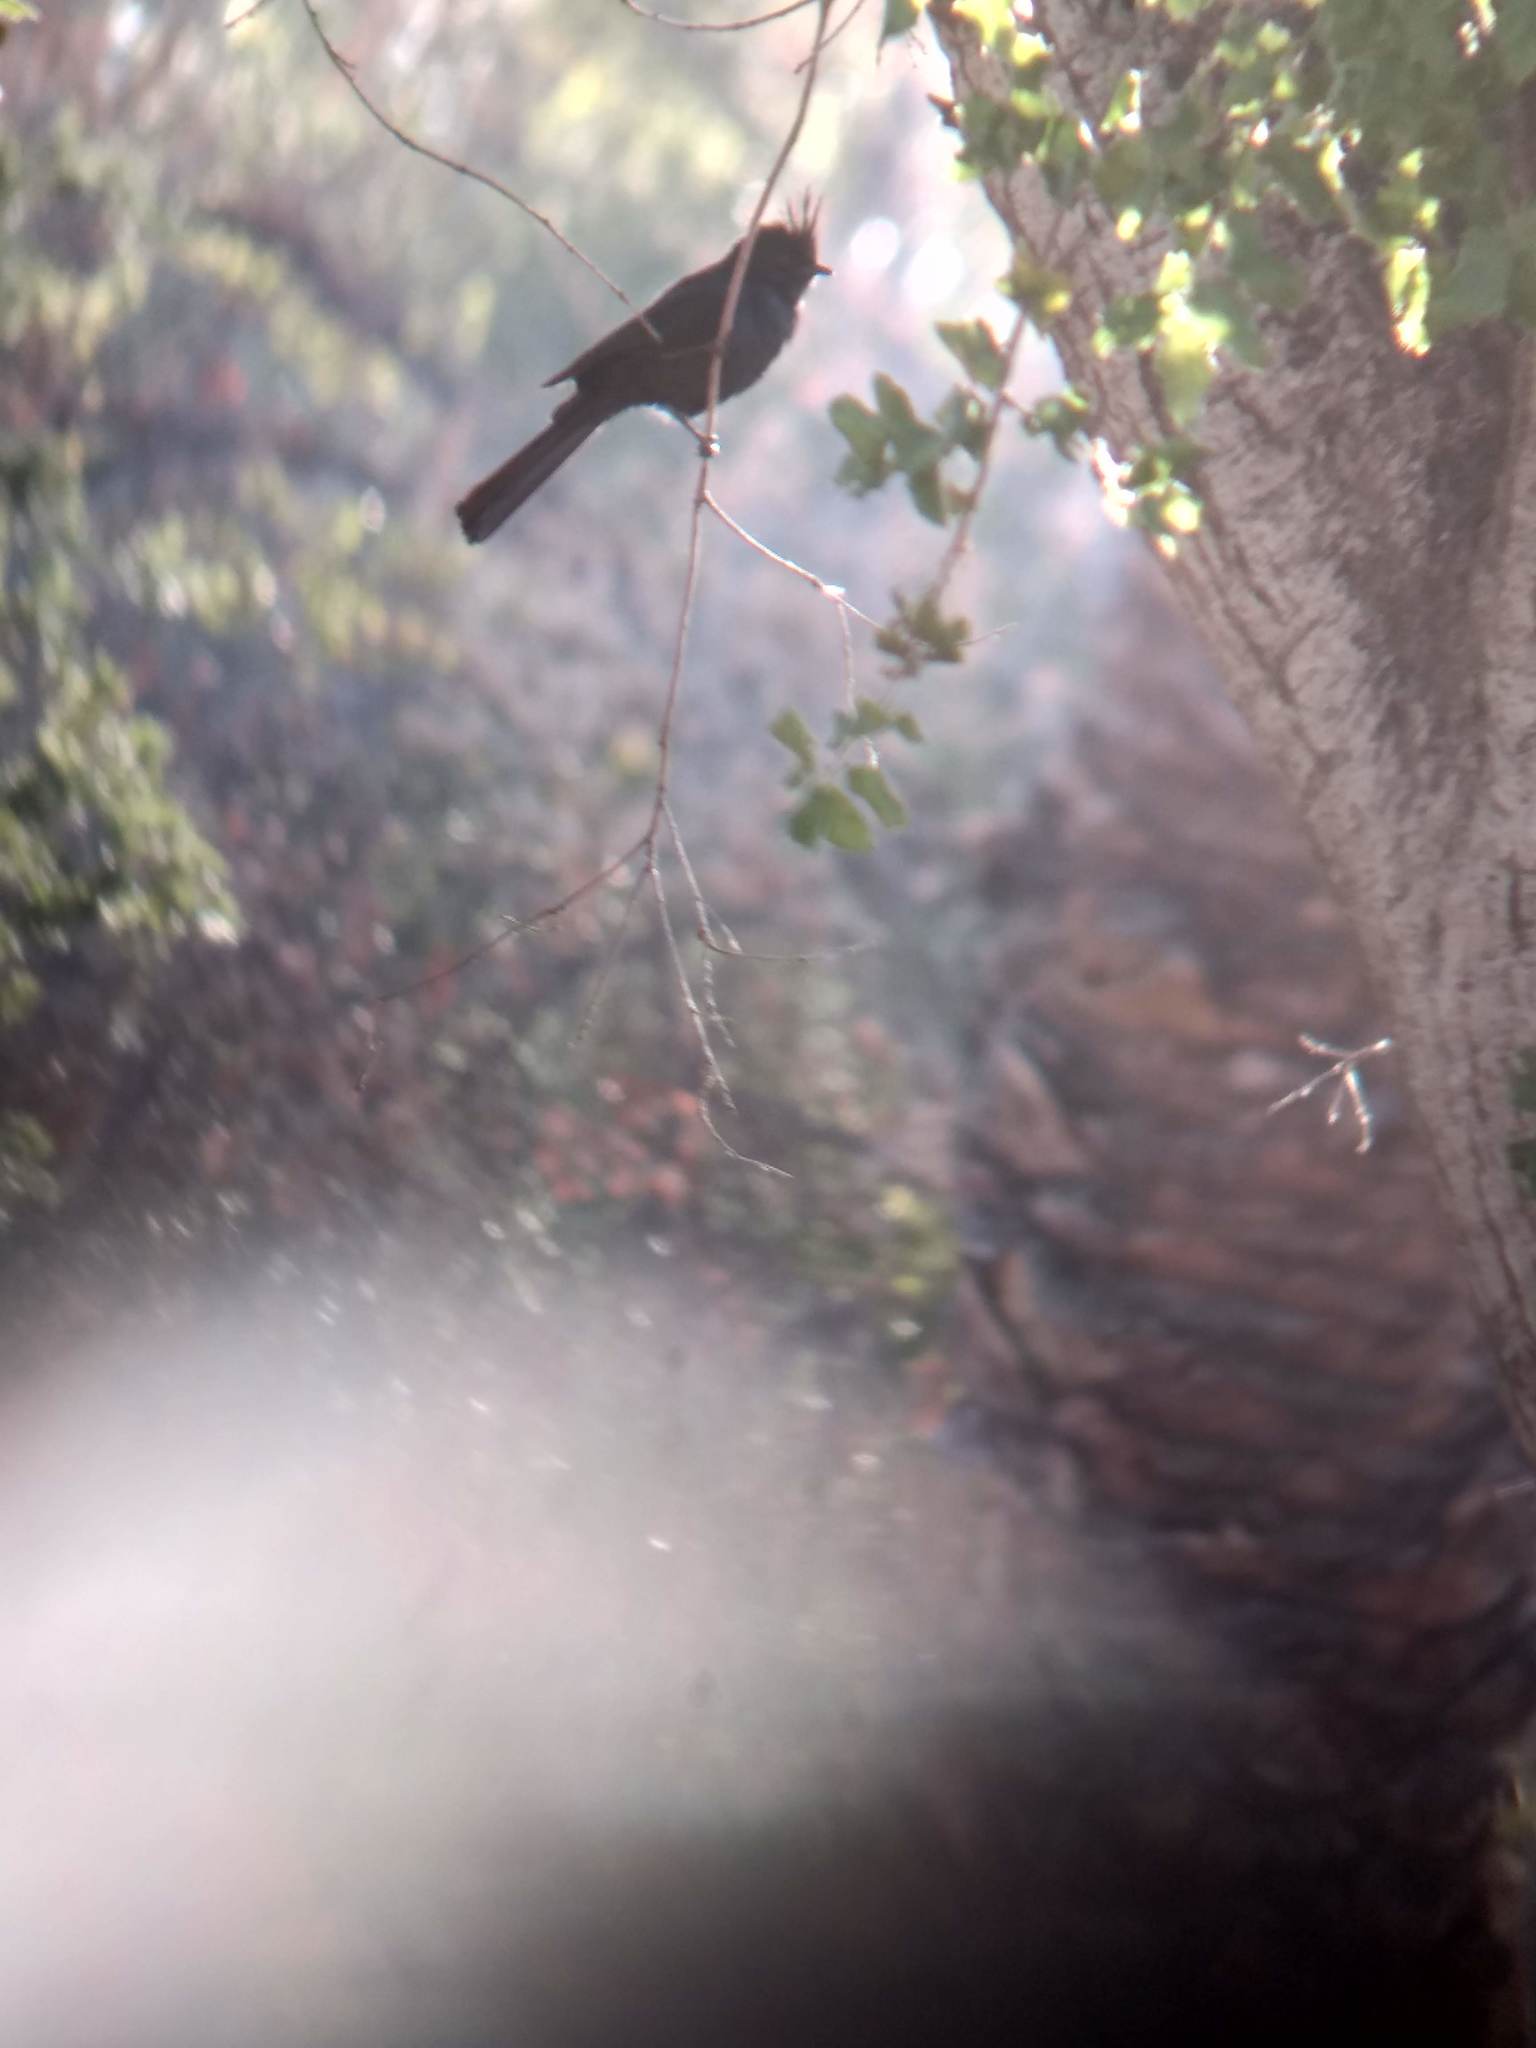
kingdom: Animalia
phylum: Chordata
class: Aves
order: Passeriformes
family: Ptilogonatidae
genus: Phainopepla
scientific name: Phainopepla nitens
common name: Phainopepla
